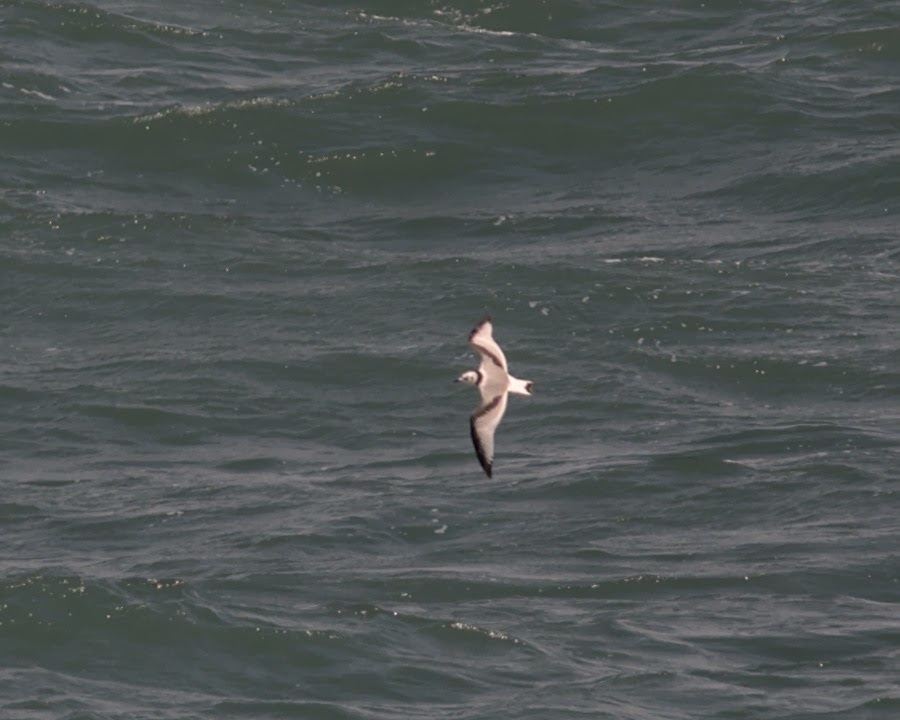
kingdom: Animalia
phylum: Chordata
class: Aves
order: Charadriiformes
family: Laridae
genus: Rissa
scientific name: Rissa tridactyla
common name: Black-legged kittiwake
